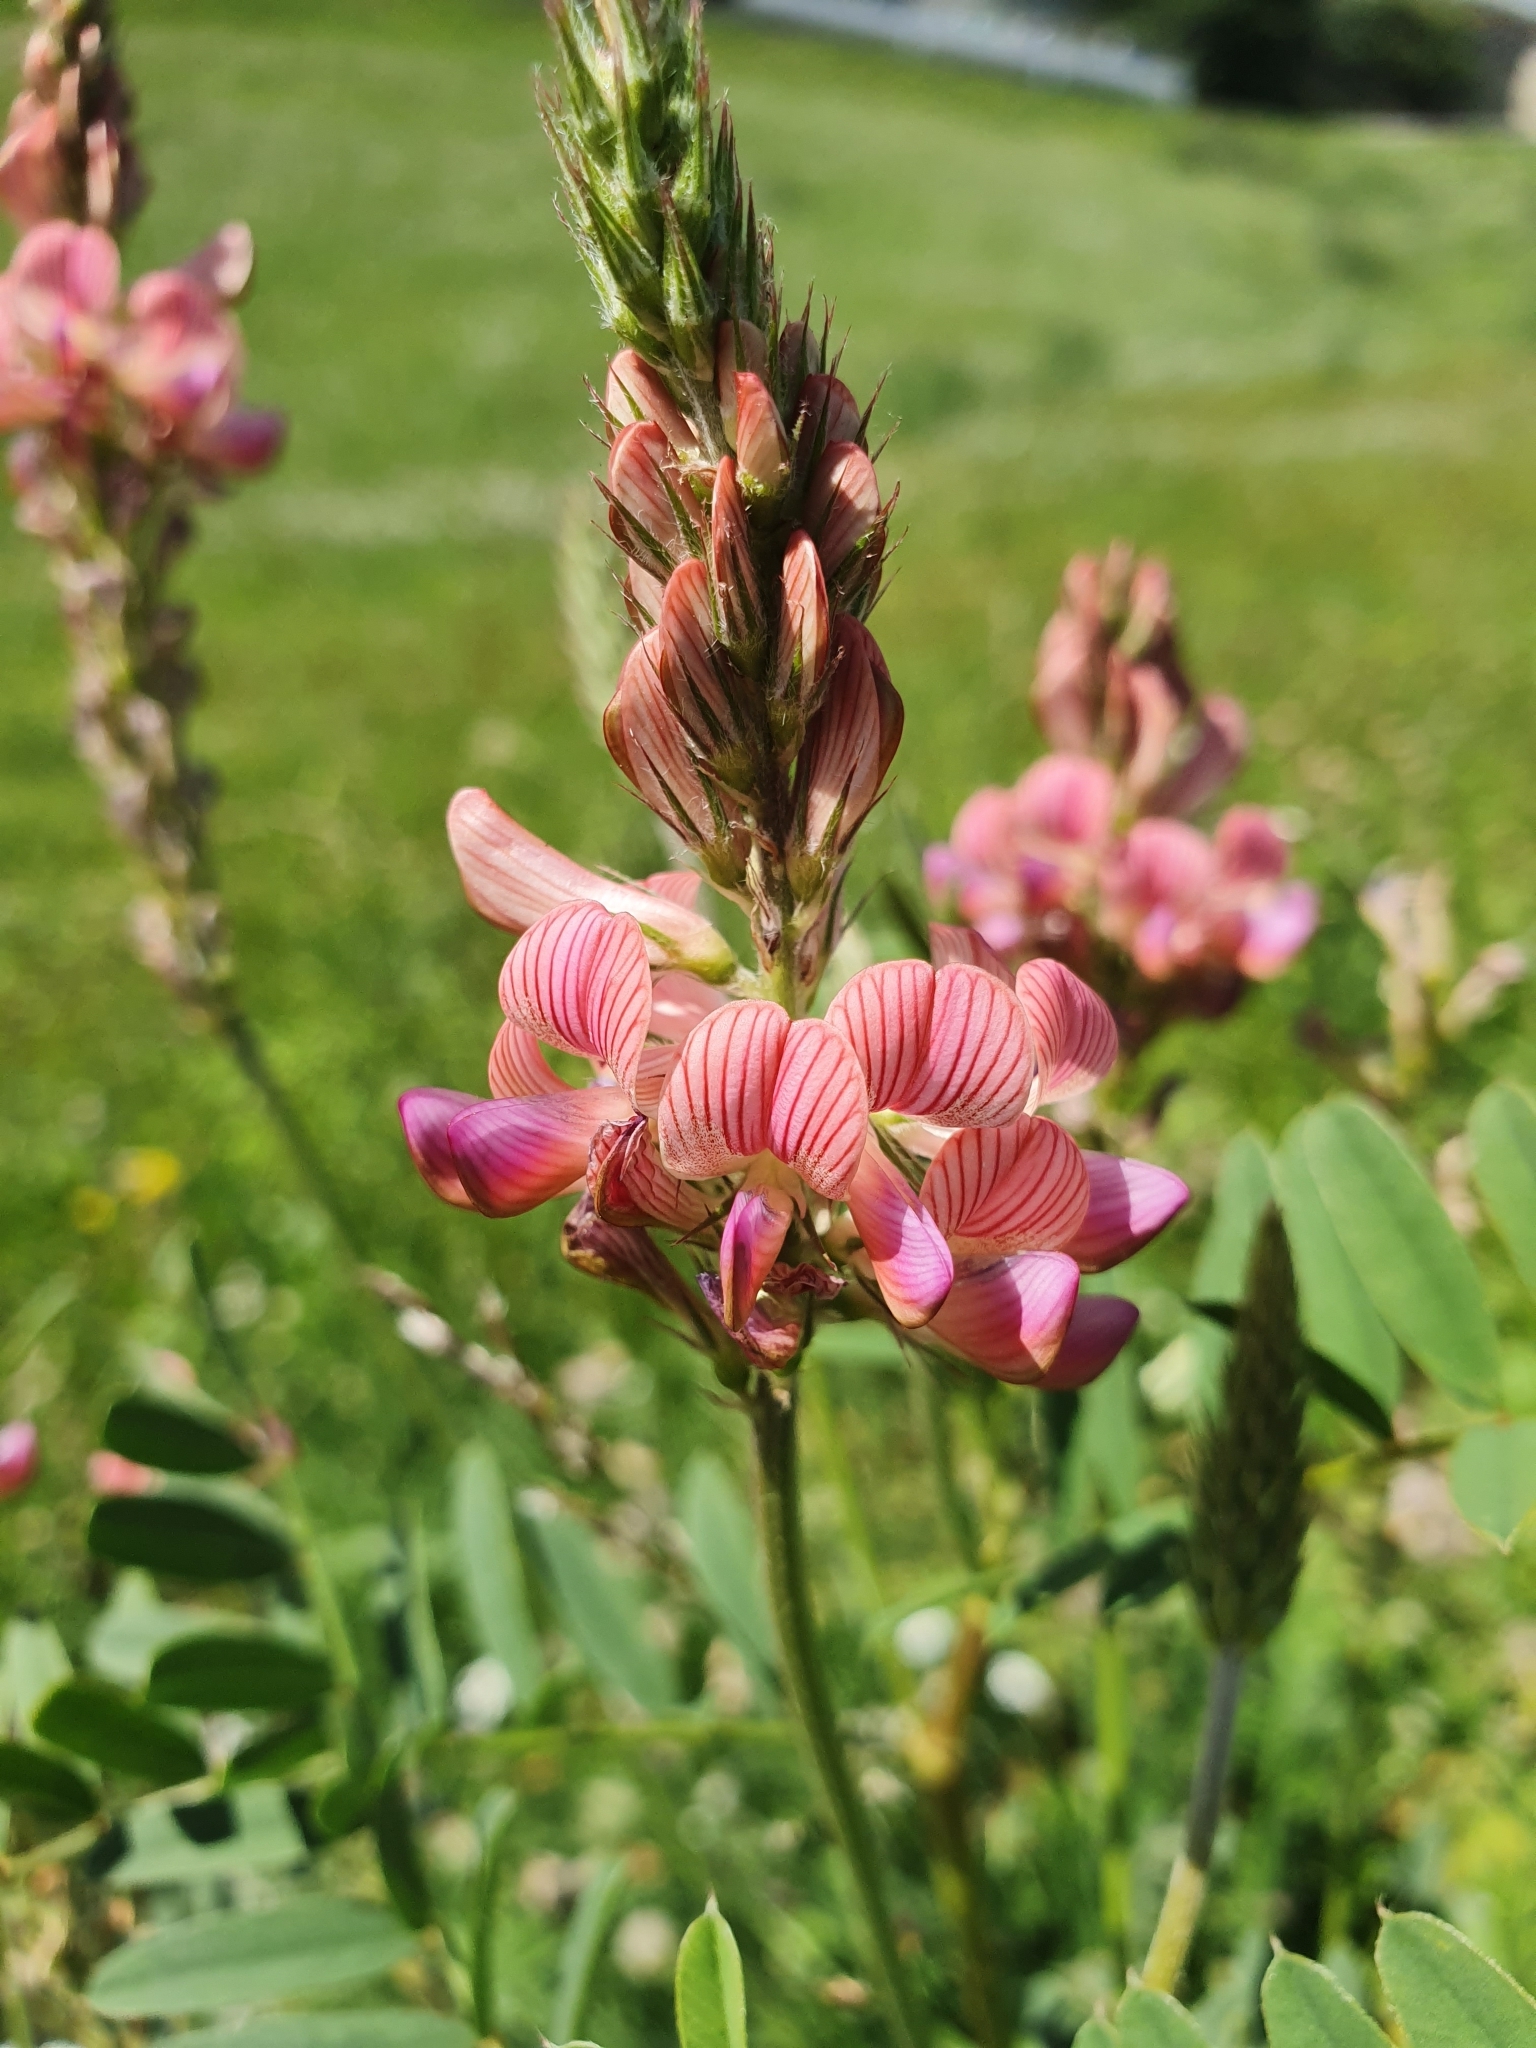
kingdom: Plantae
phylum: Tracheophyta
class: Magnoliopsida
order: Fabales
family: Fabaceae
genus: Onobrychis
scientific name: Onobrychis viciifolia
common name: Sainfoin
